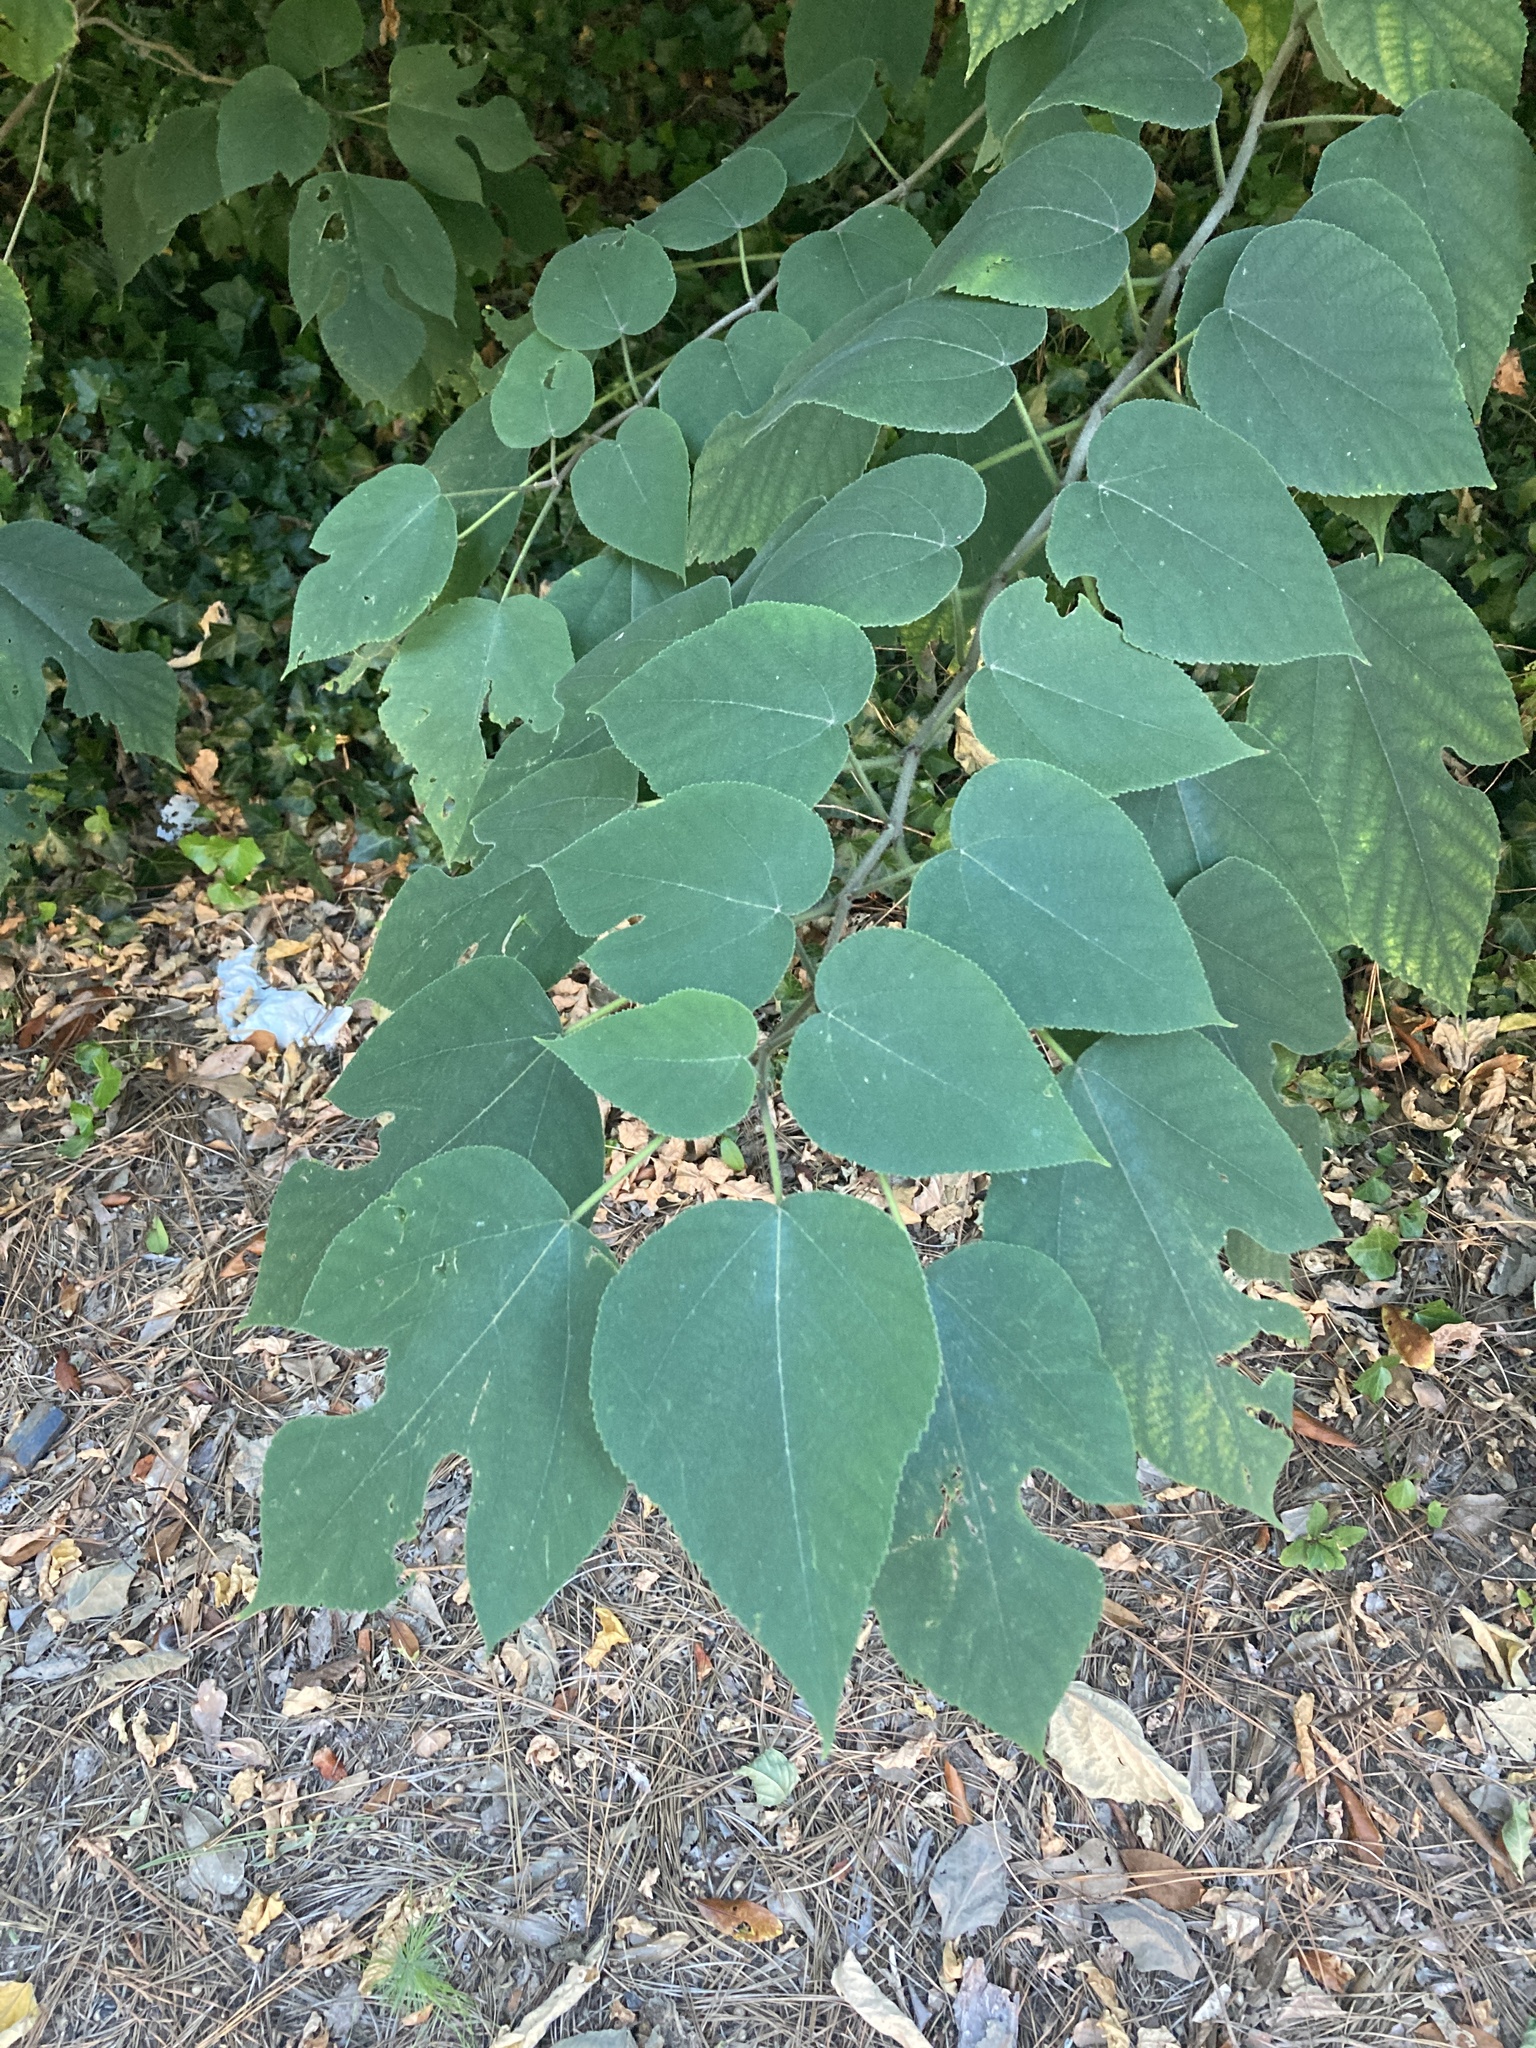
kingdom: Plantae
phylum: Tracheophyta
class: Magnoliopsida
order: Rosales
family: Moraceae
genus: Broussonetia
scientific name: Broussonetia papyrifera
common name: Paper mulberry
